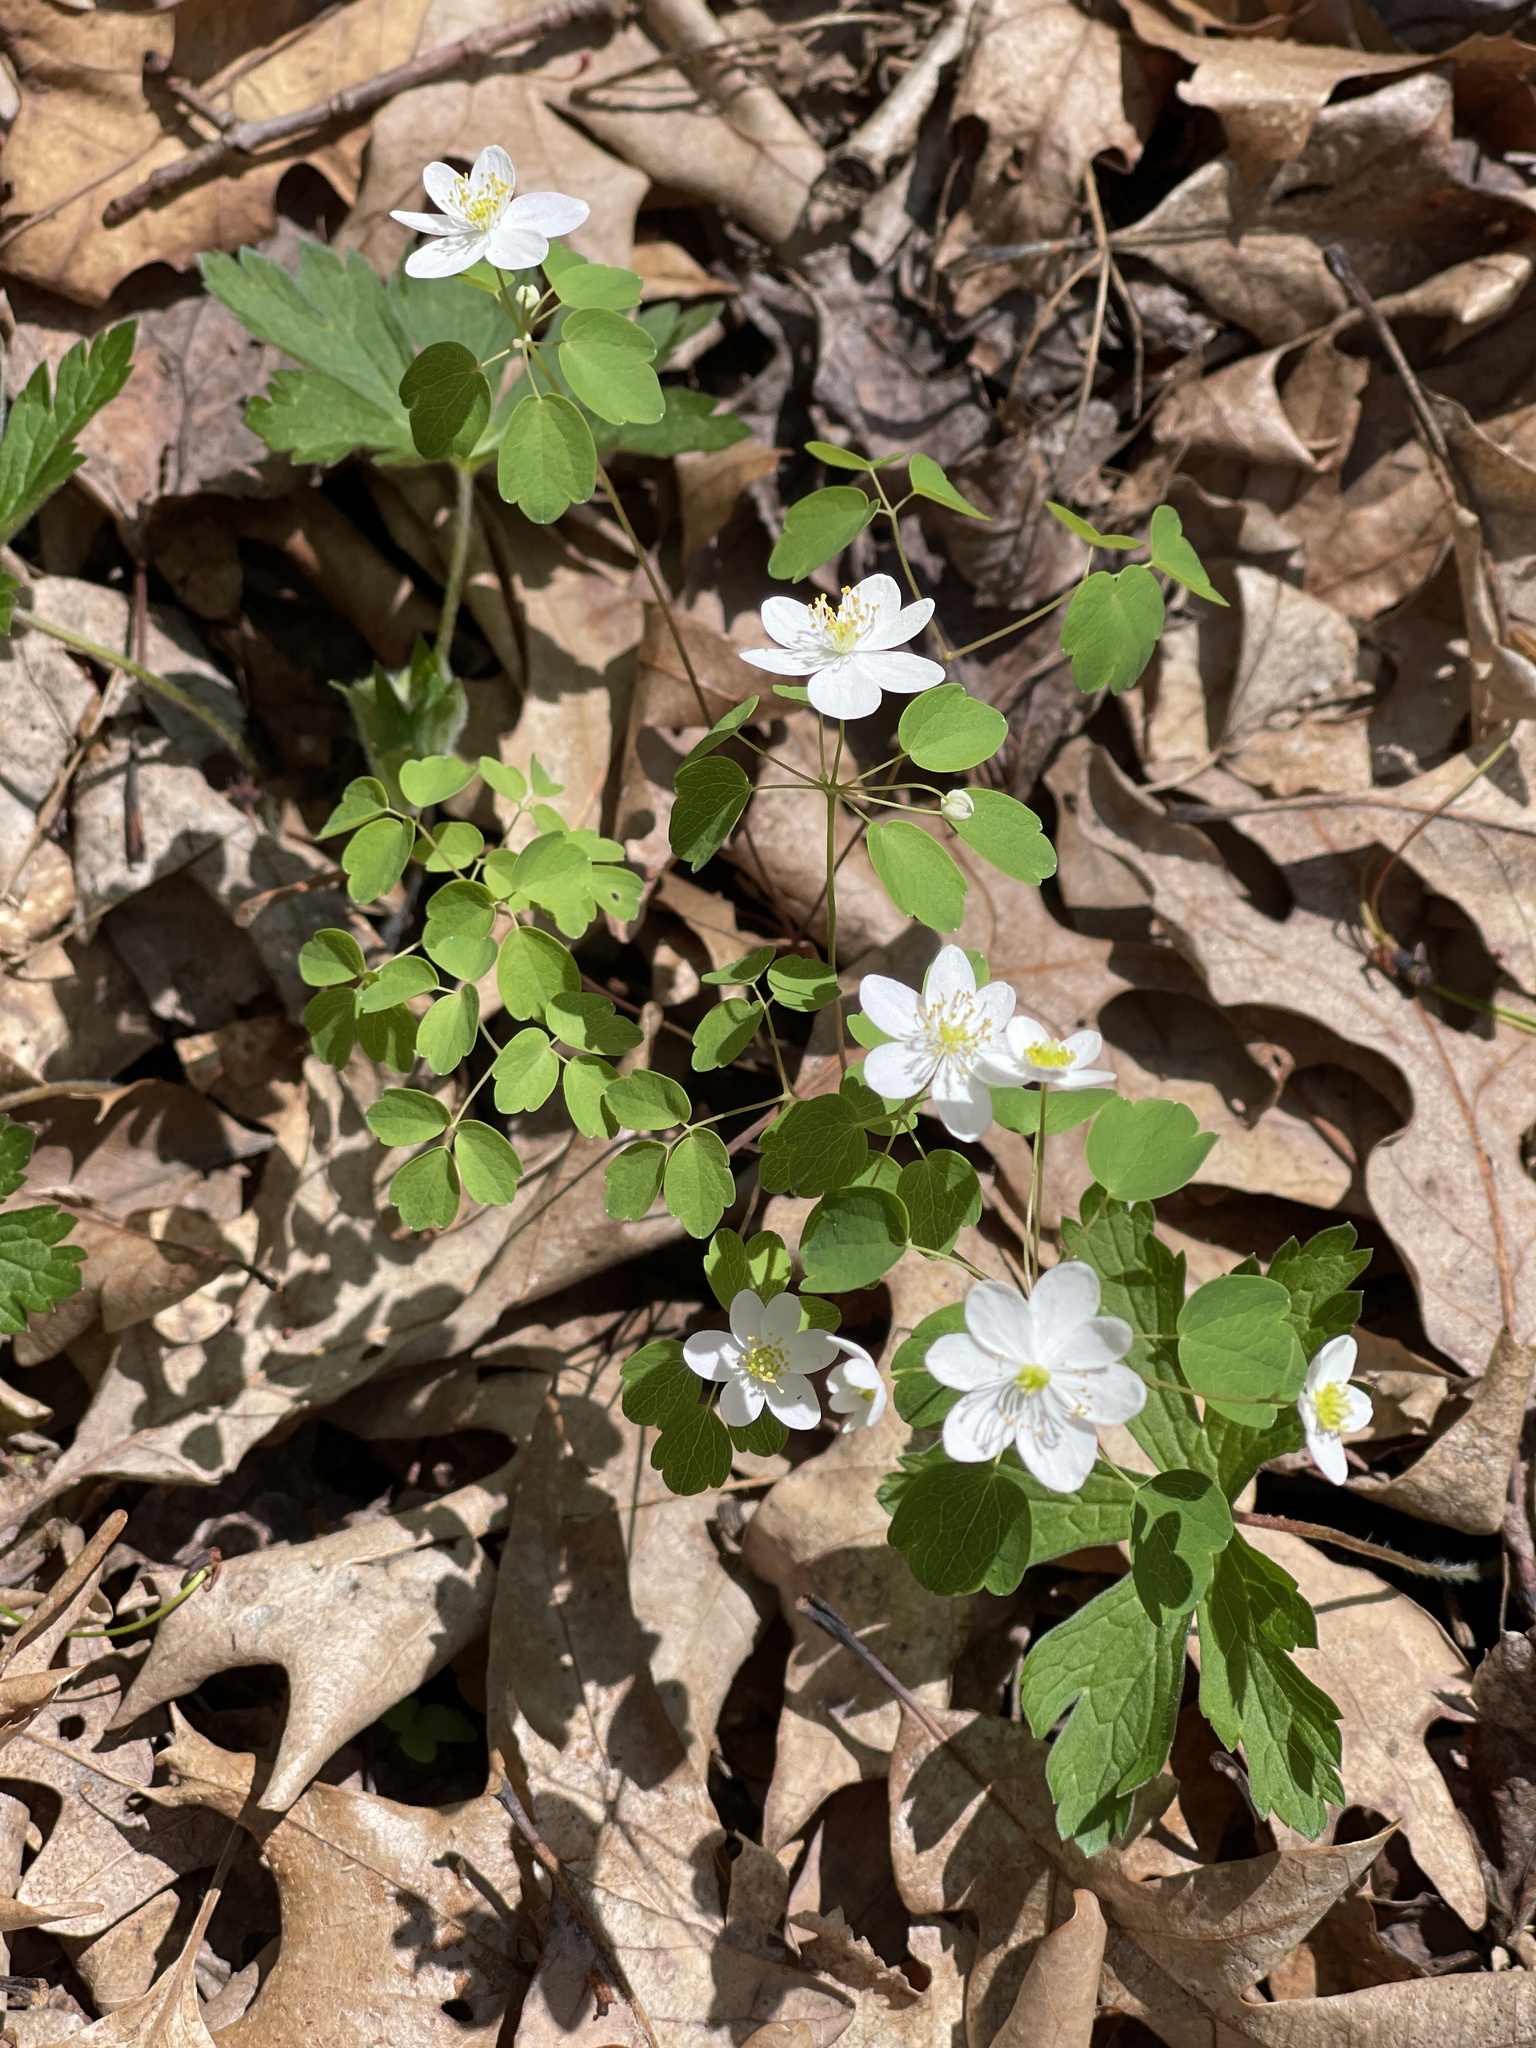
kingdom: Plantae
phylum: Tracheophyta
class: Magnoliopsida
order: Ranunculales
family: Ranunculaceae
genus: Thalictrum
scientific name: Thalictrum thalictroides
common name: Rue-anemone
